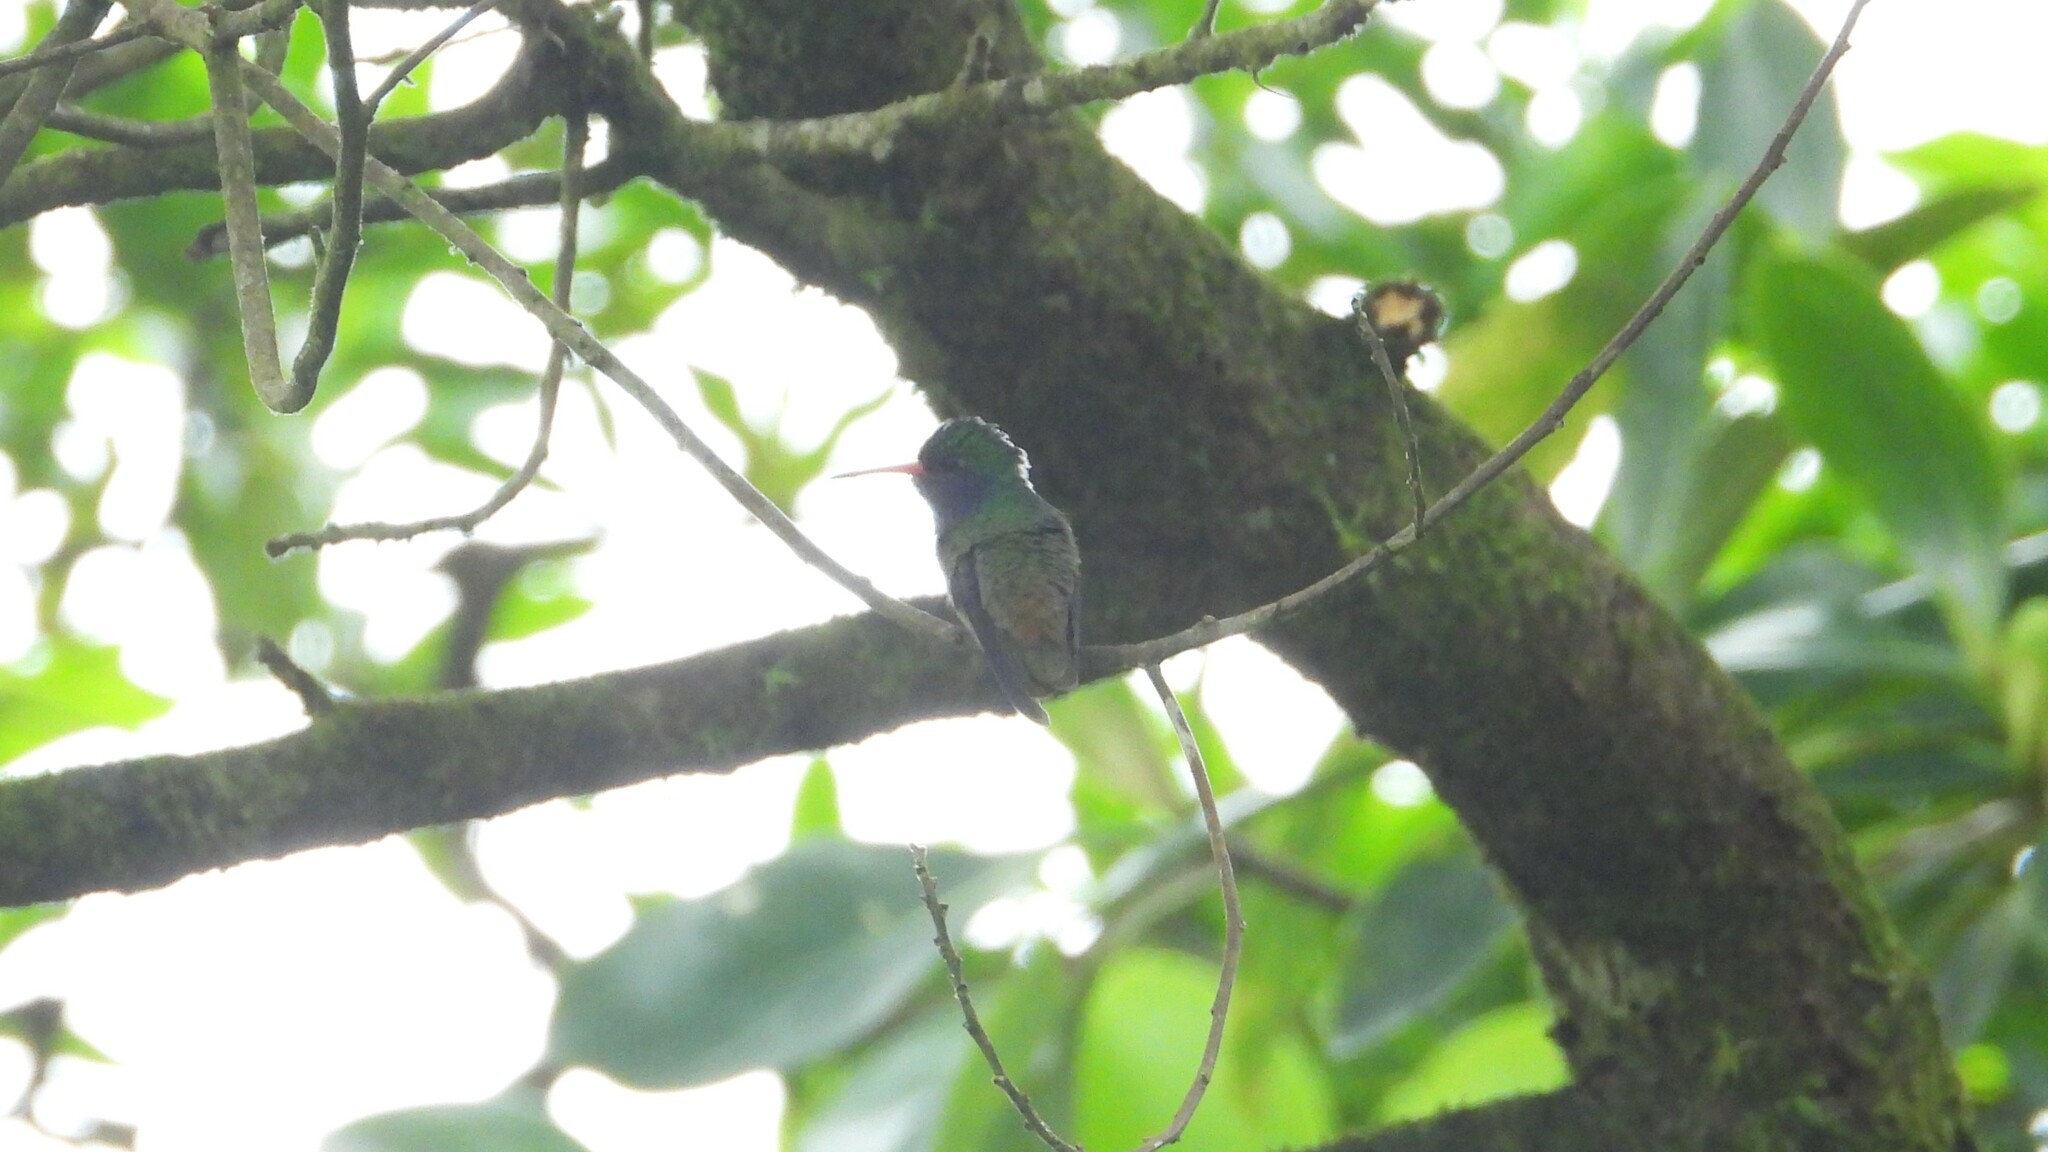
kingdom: Animalia
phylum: Chordata
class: Aves
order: Apodiformes
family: Trochilidae
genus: Chlorestes
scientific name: Chlorestes eliciae
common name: Blue-throated sapphire
